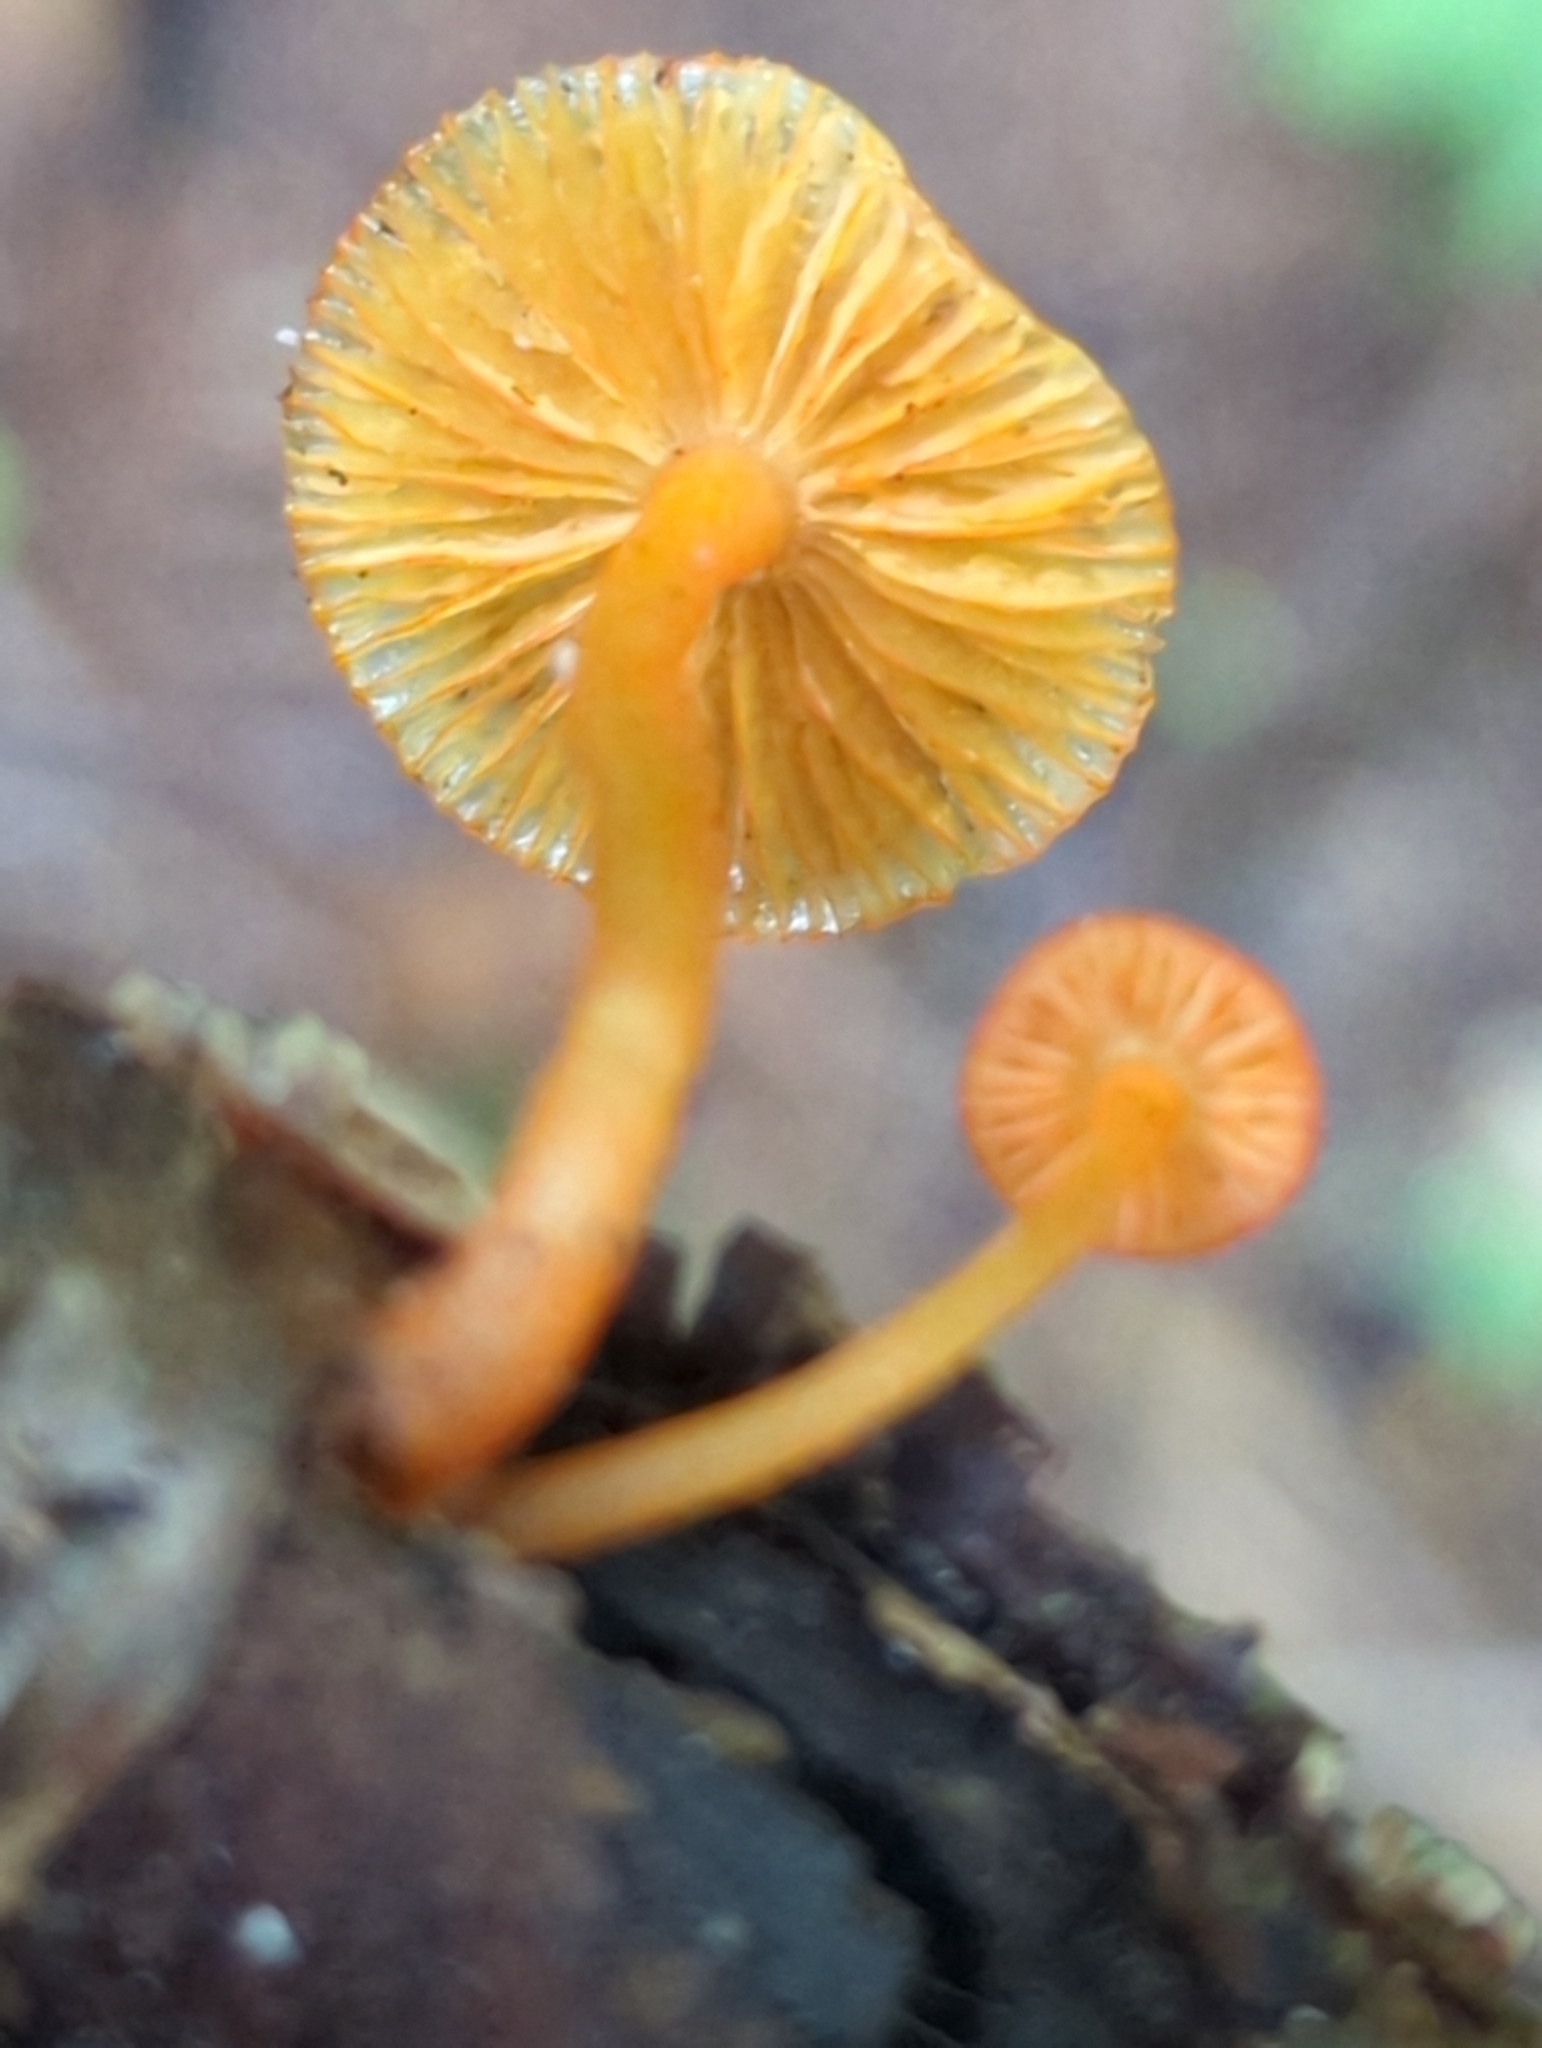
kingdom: Fungi
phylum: Basidiomycota
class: Agaricomycetes
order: Agaricales
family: Mycenaceae
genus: Mycena
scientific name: Mycena leaiana
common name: Orange mycena
